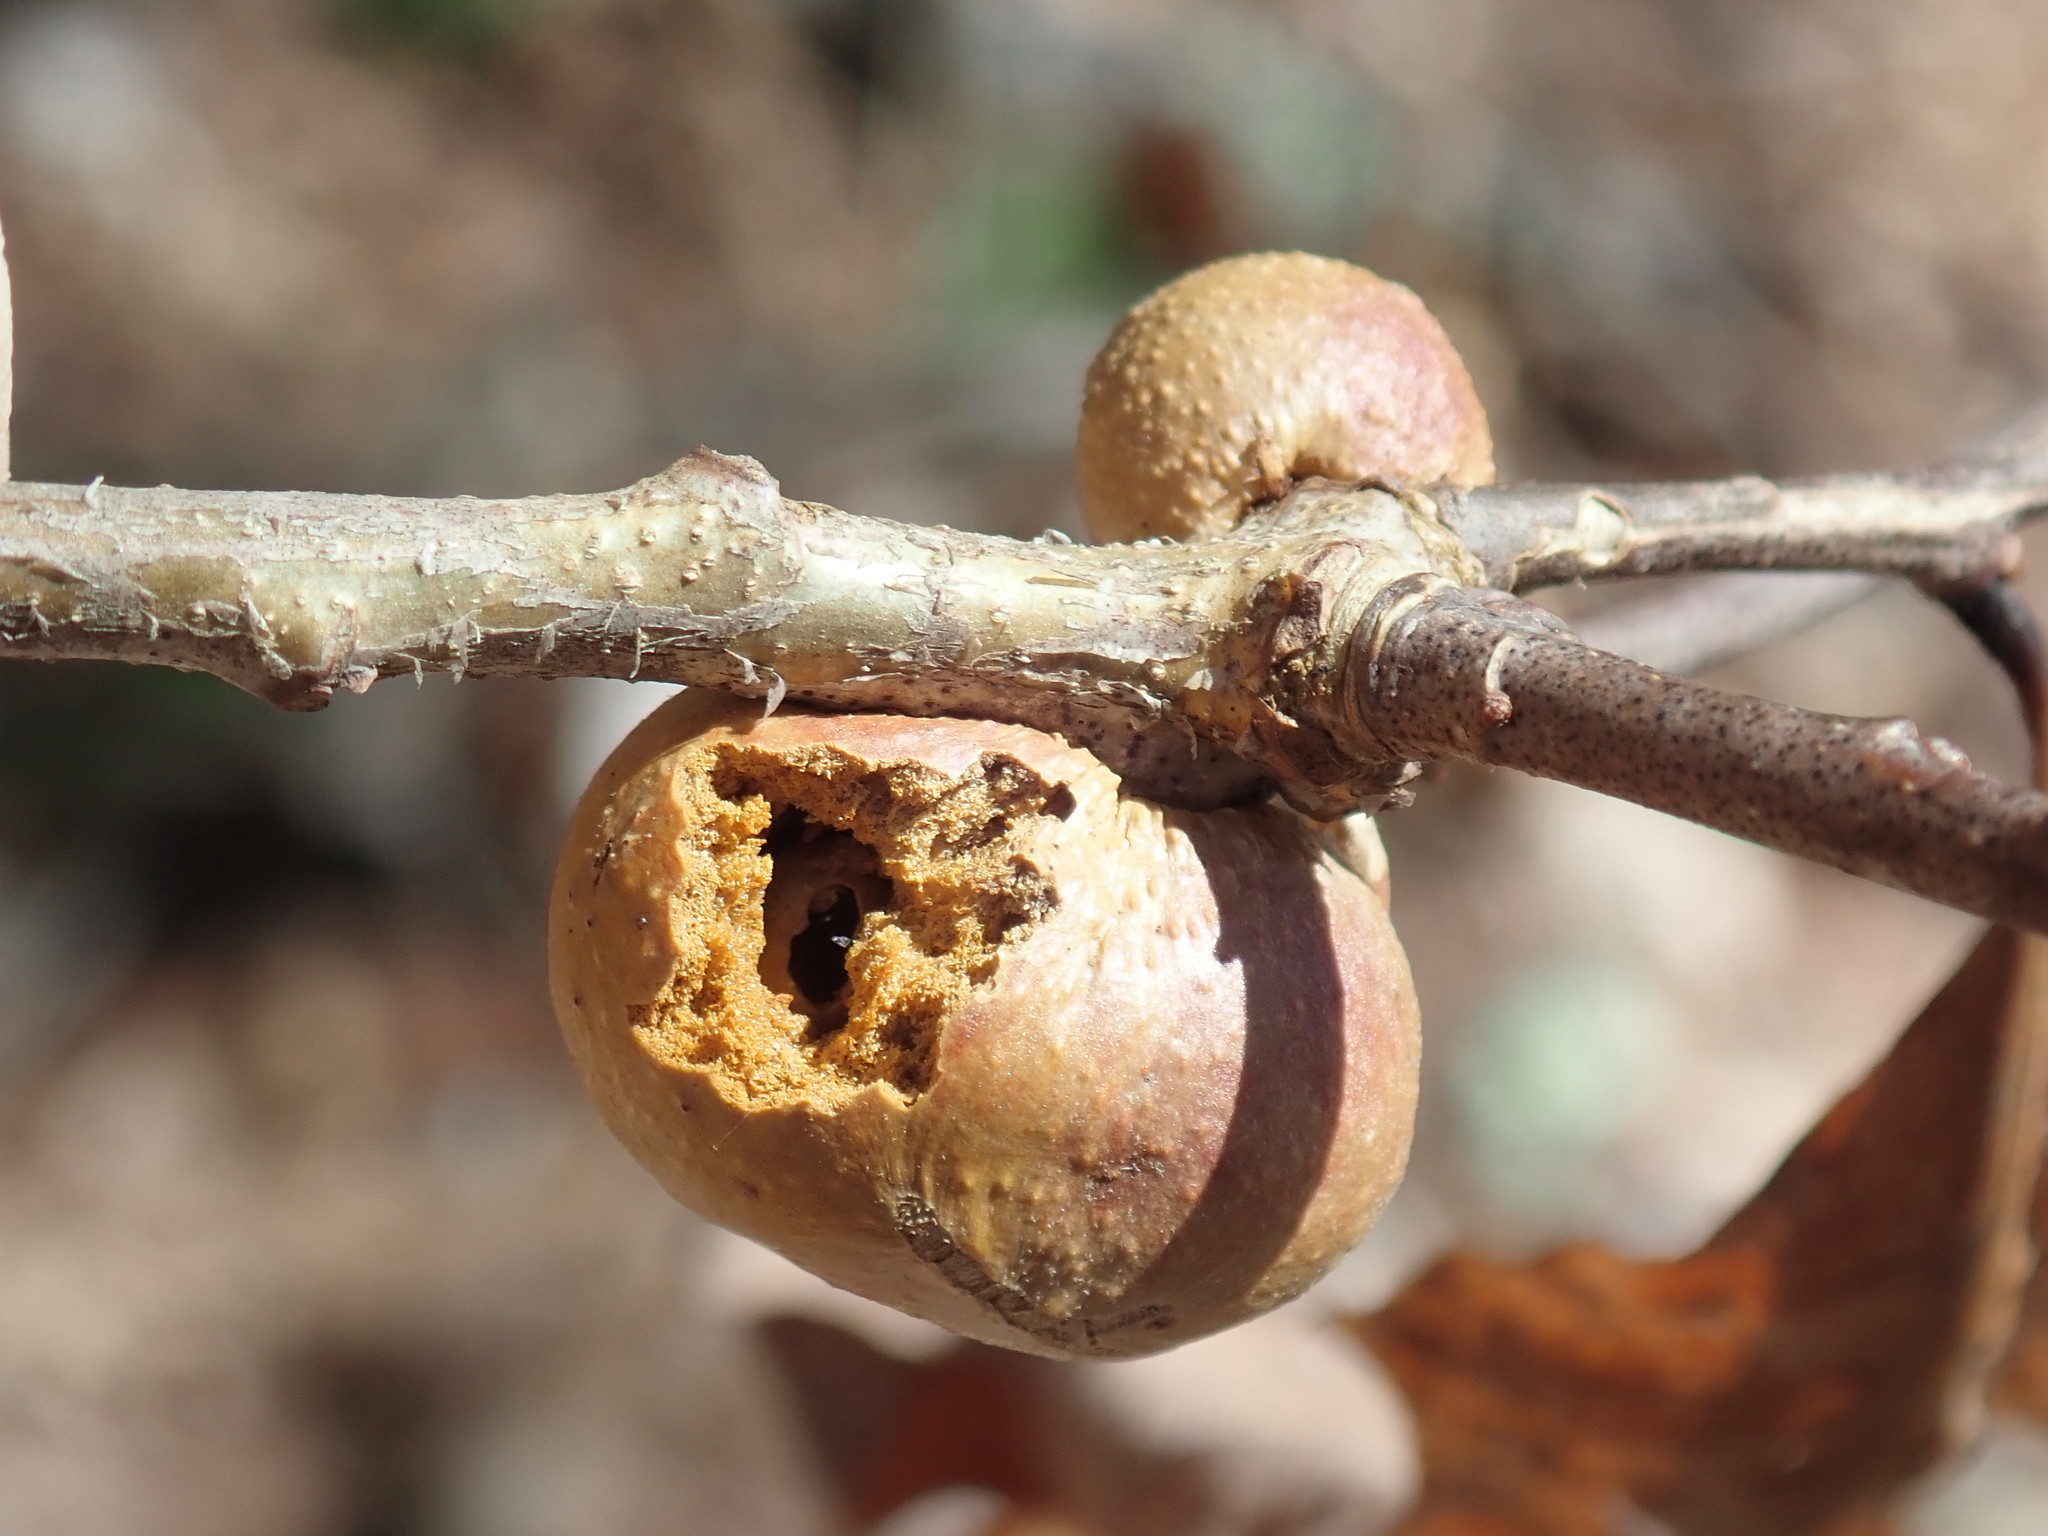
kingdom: Animalia
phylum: Arthropoda
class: Insecta
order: Hymenoptera
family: Cynipidae
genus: Disholcaspis
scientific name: Disholcaspis quercusglobulus
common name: Round bullet gall wasp
